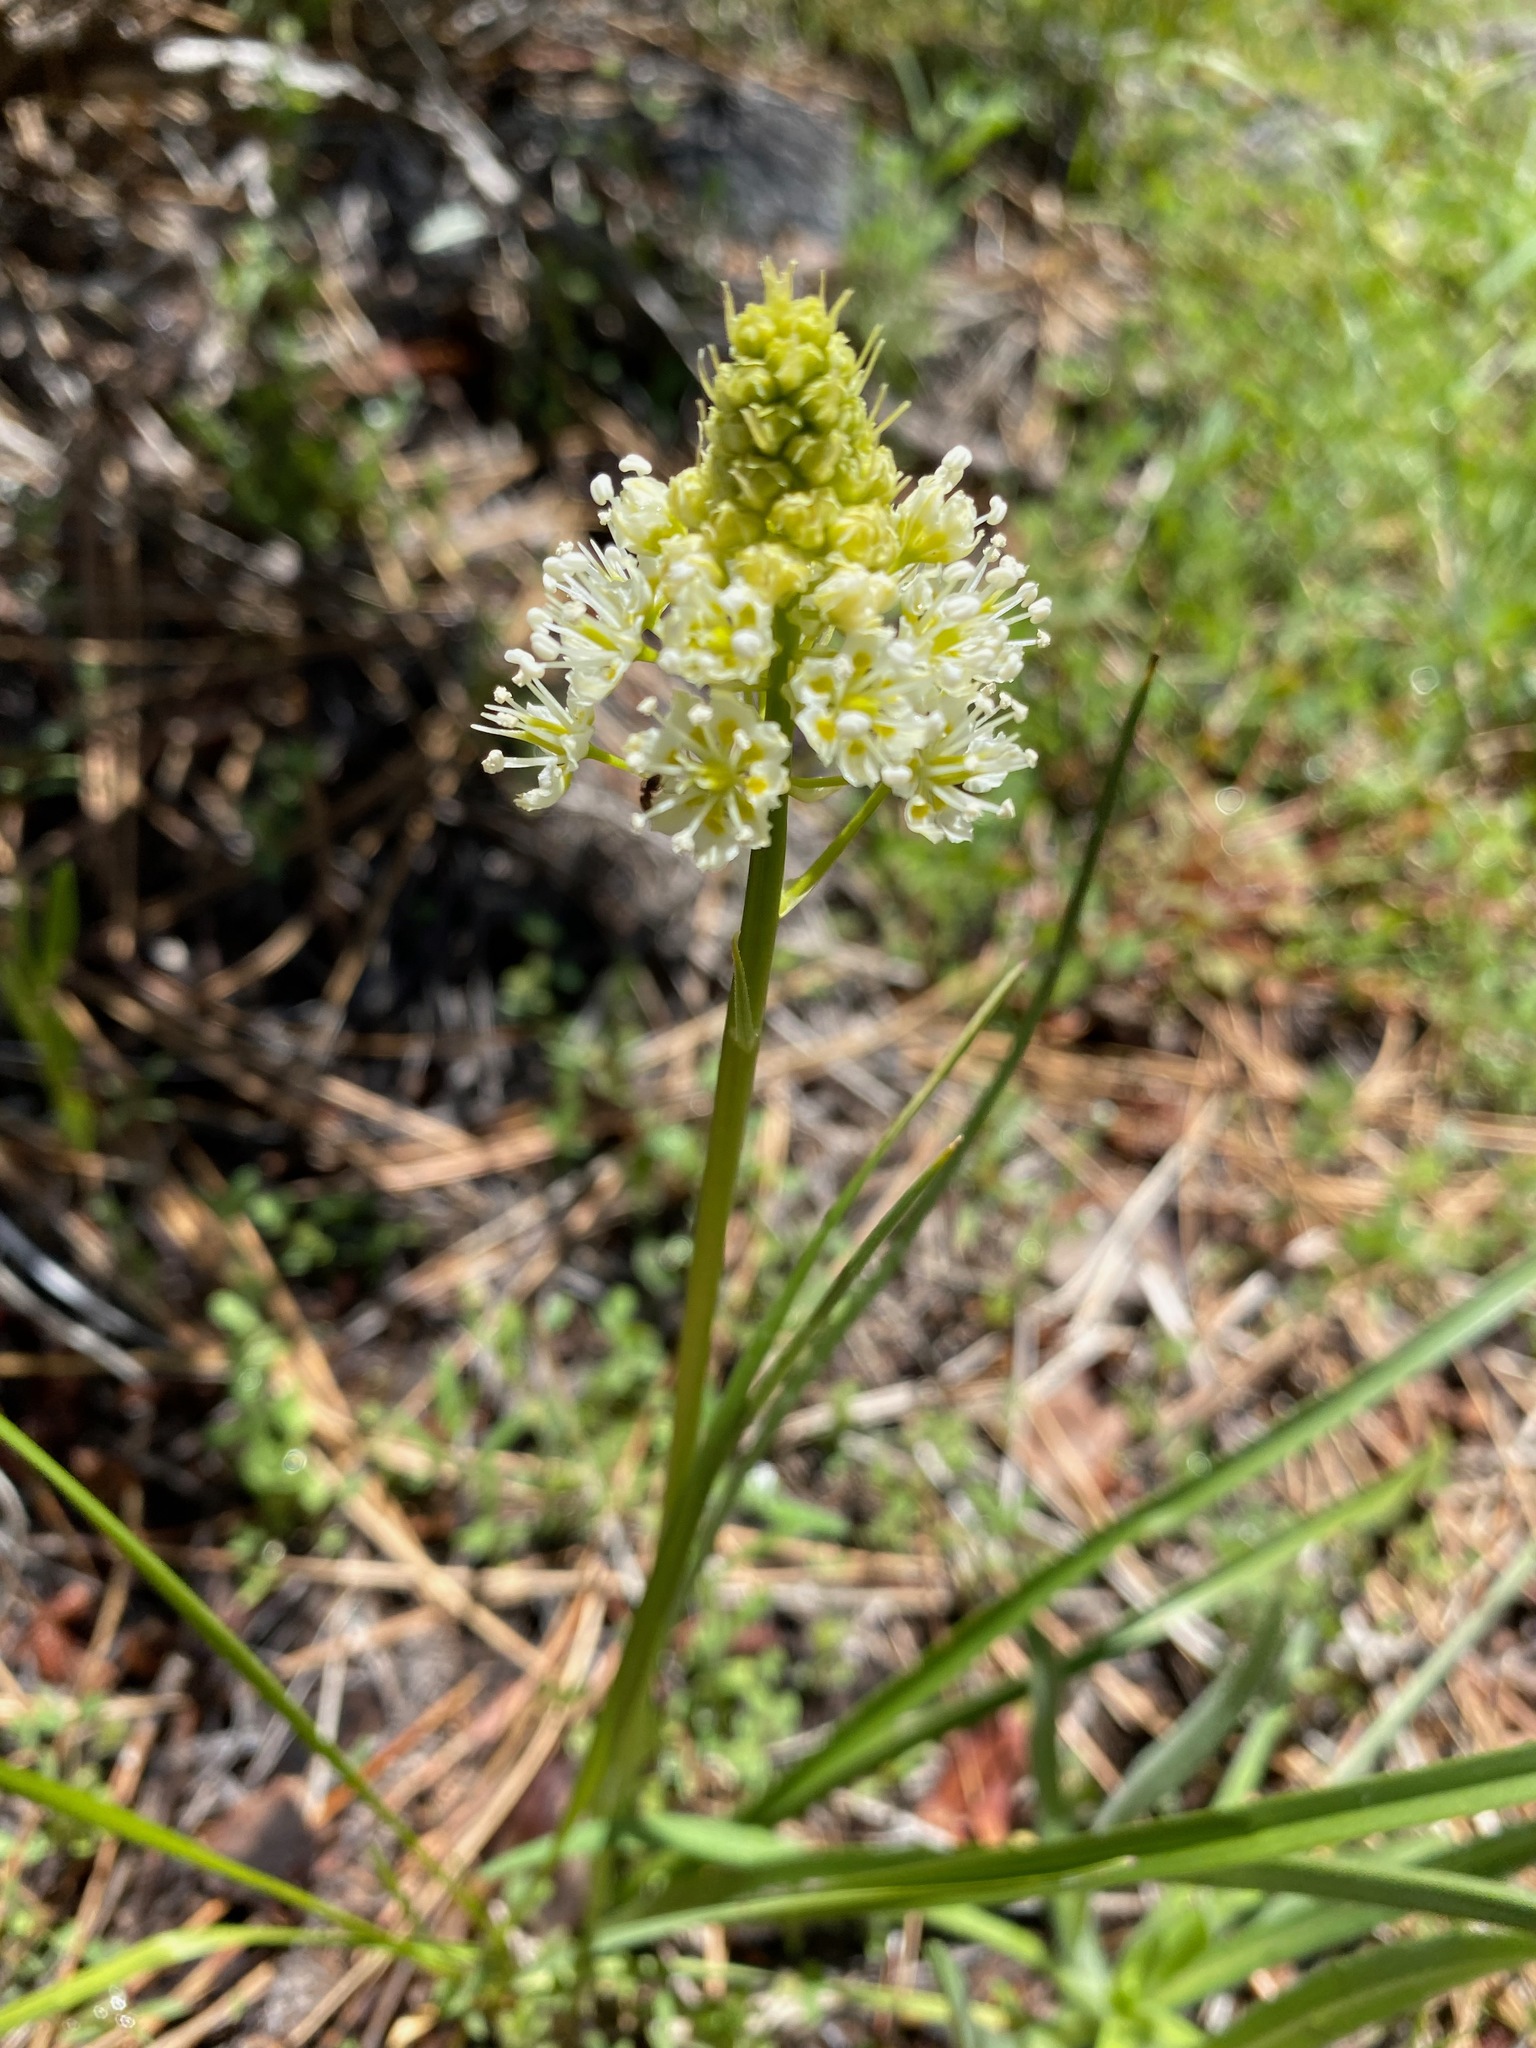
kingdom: Plantae
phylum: Tracheophyta
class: Liliopsida
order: Liliales
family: Melanthiaceae
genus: Toxicoscordion
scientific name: Toxicoscordion venenosum
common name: Meadow death camas
